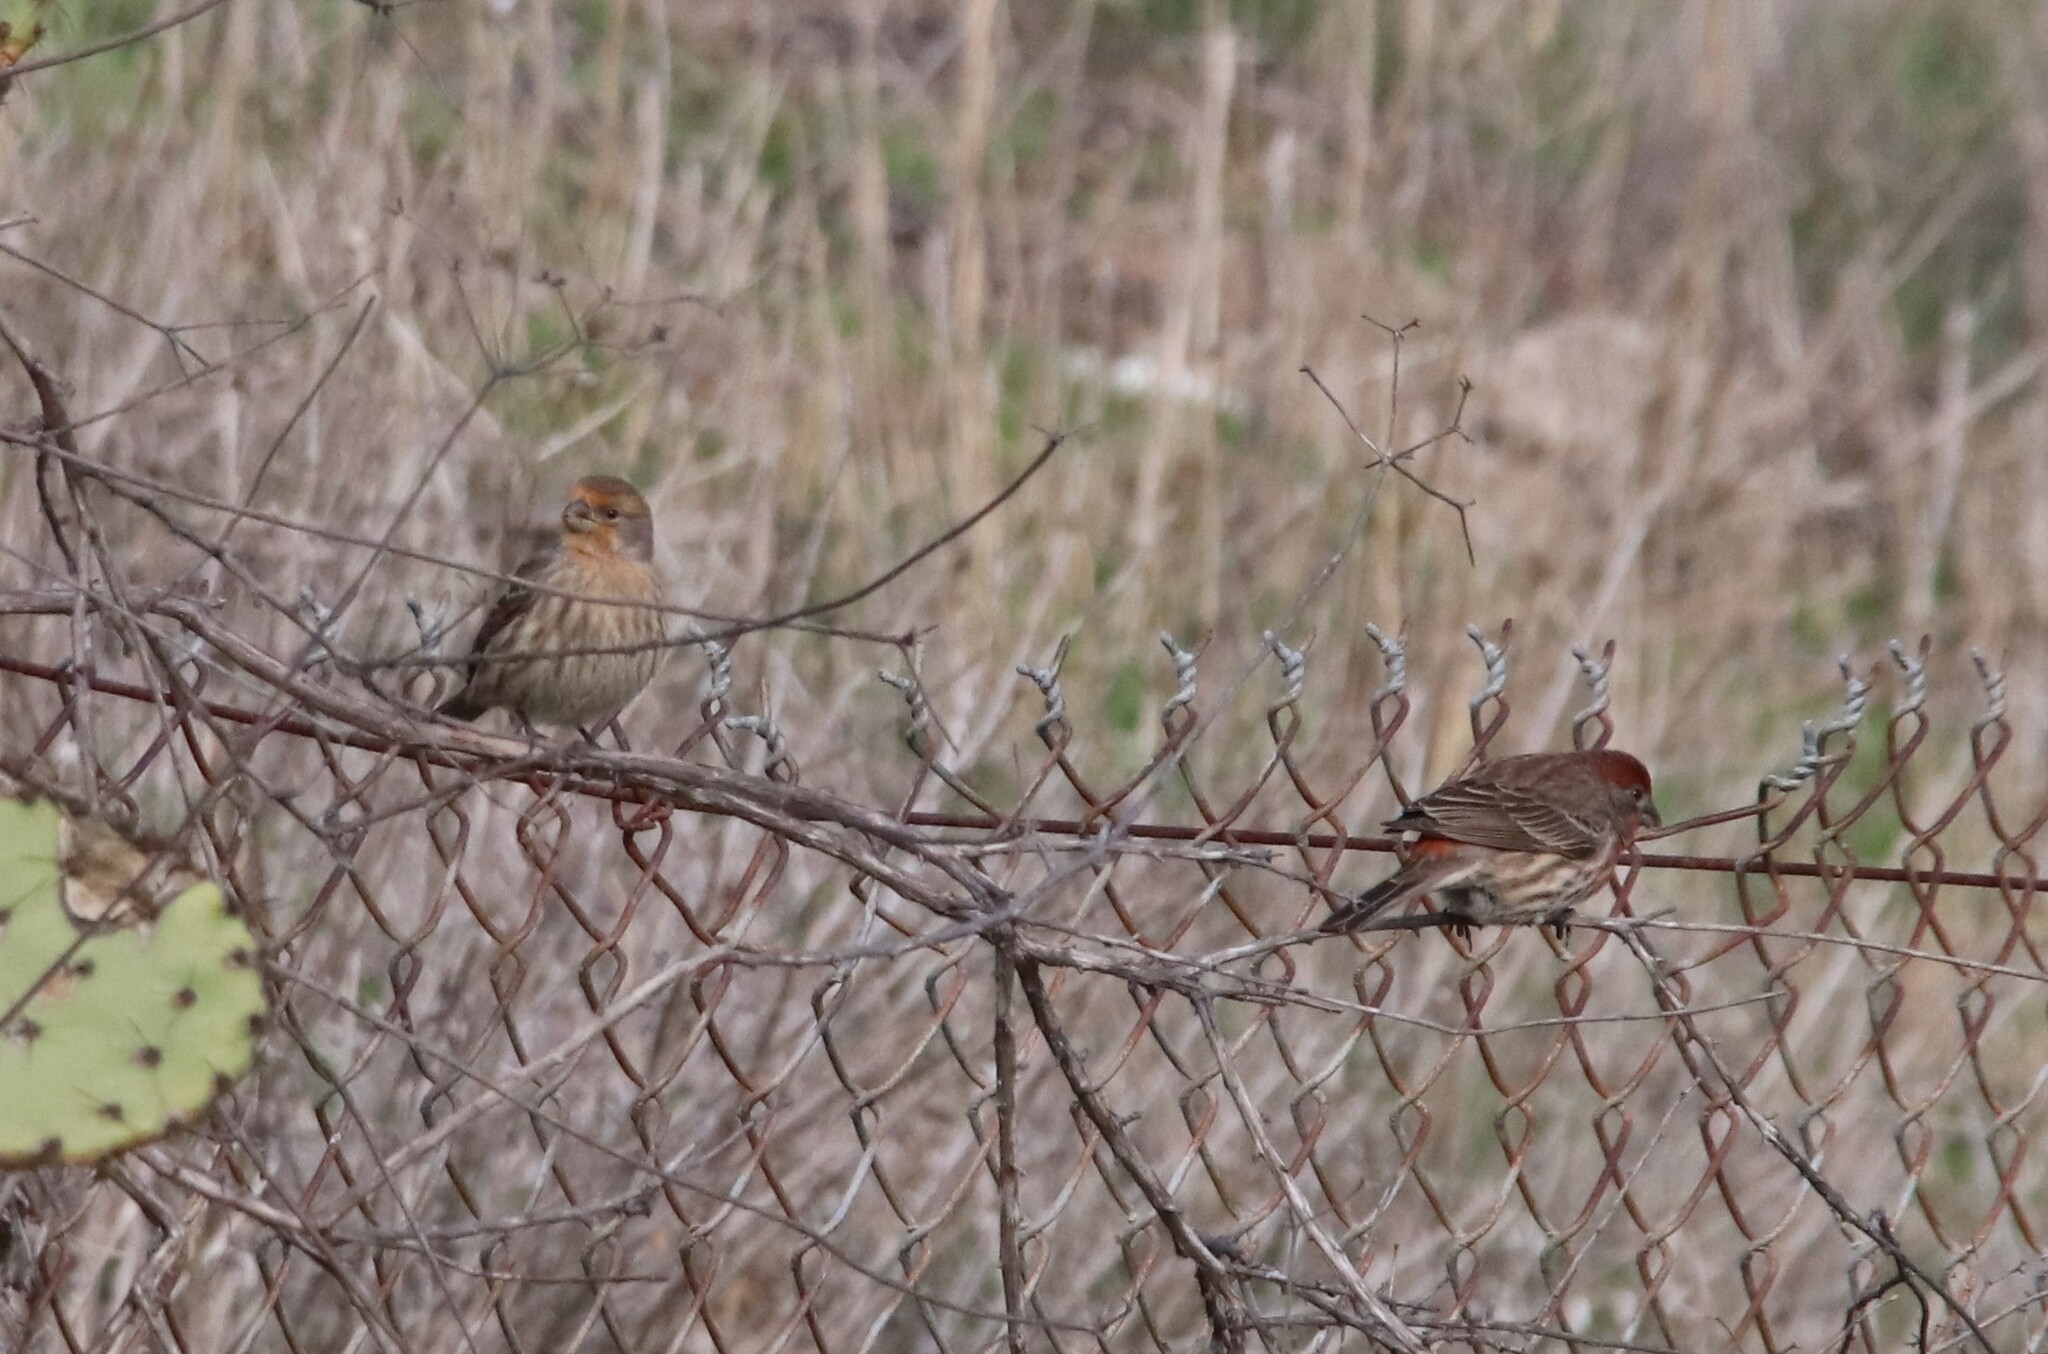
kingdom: Animalia
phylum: Chordata
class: Aves
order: Passeriformes
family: Fringillidae
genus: Haemorhous
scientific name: Haemorhous mexicanus
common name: House finch
